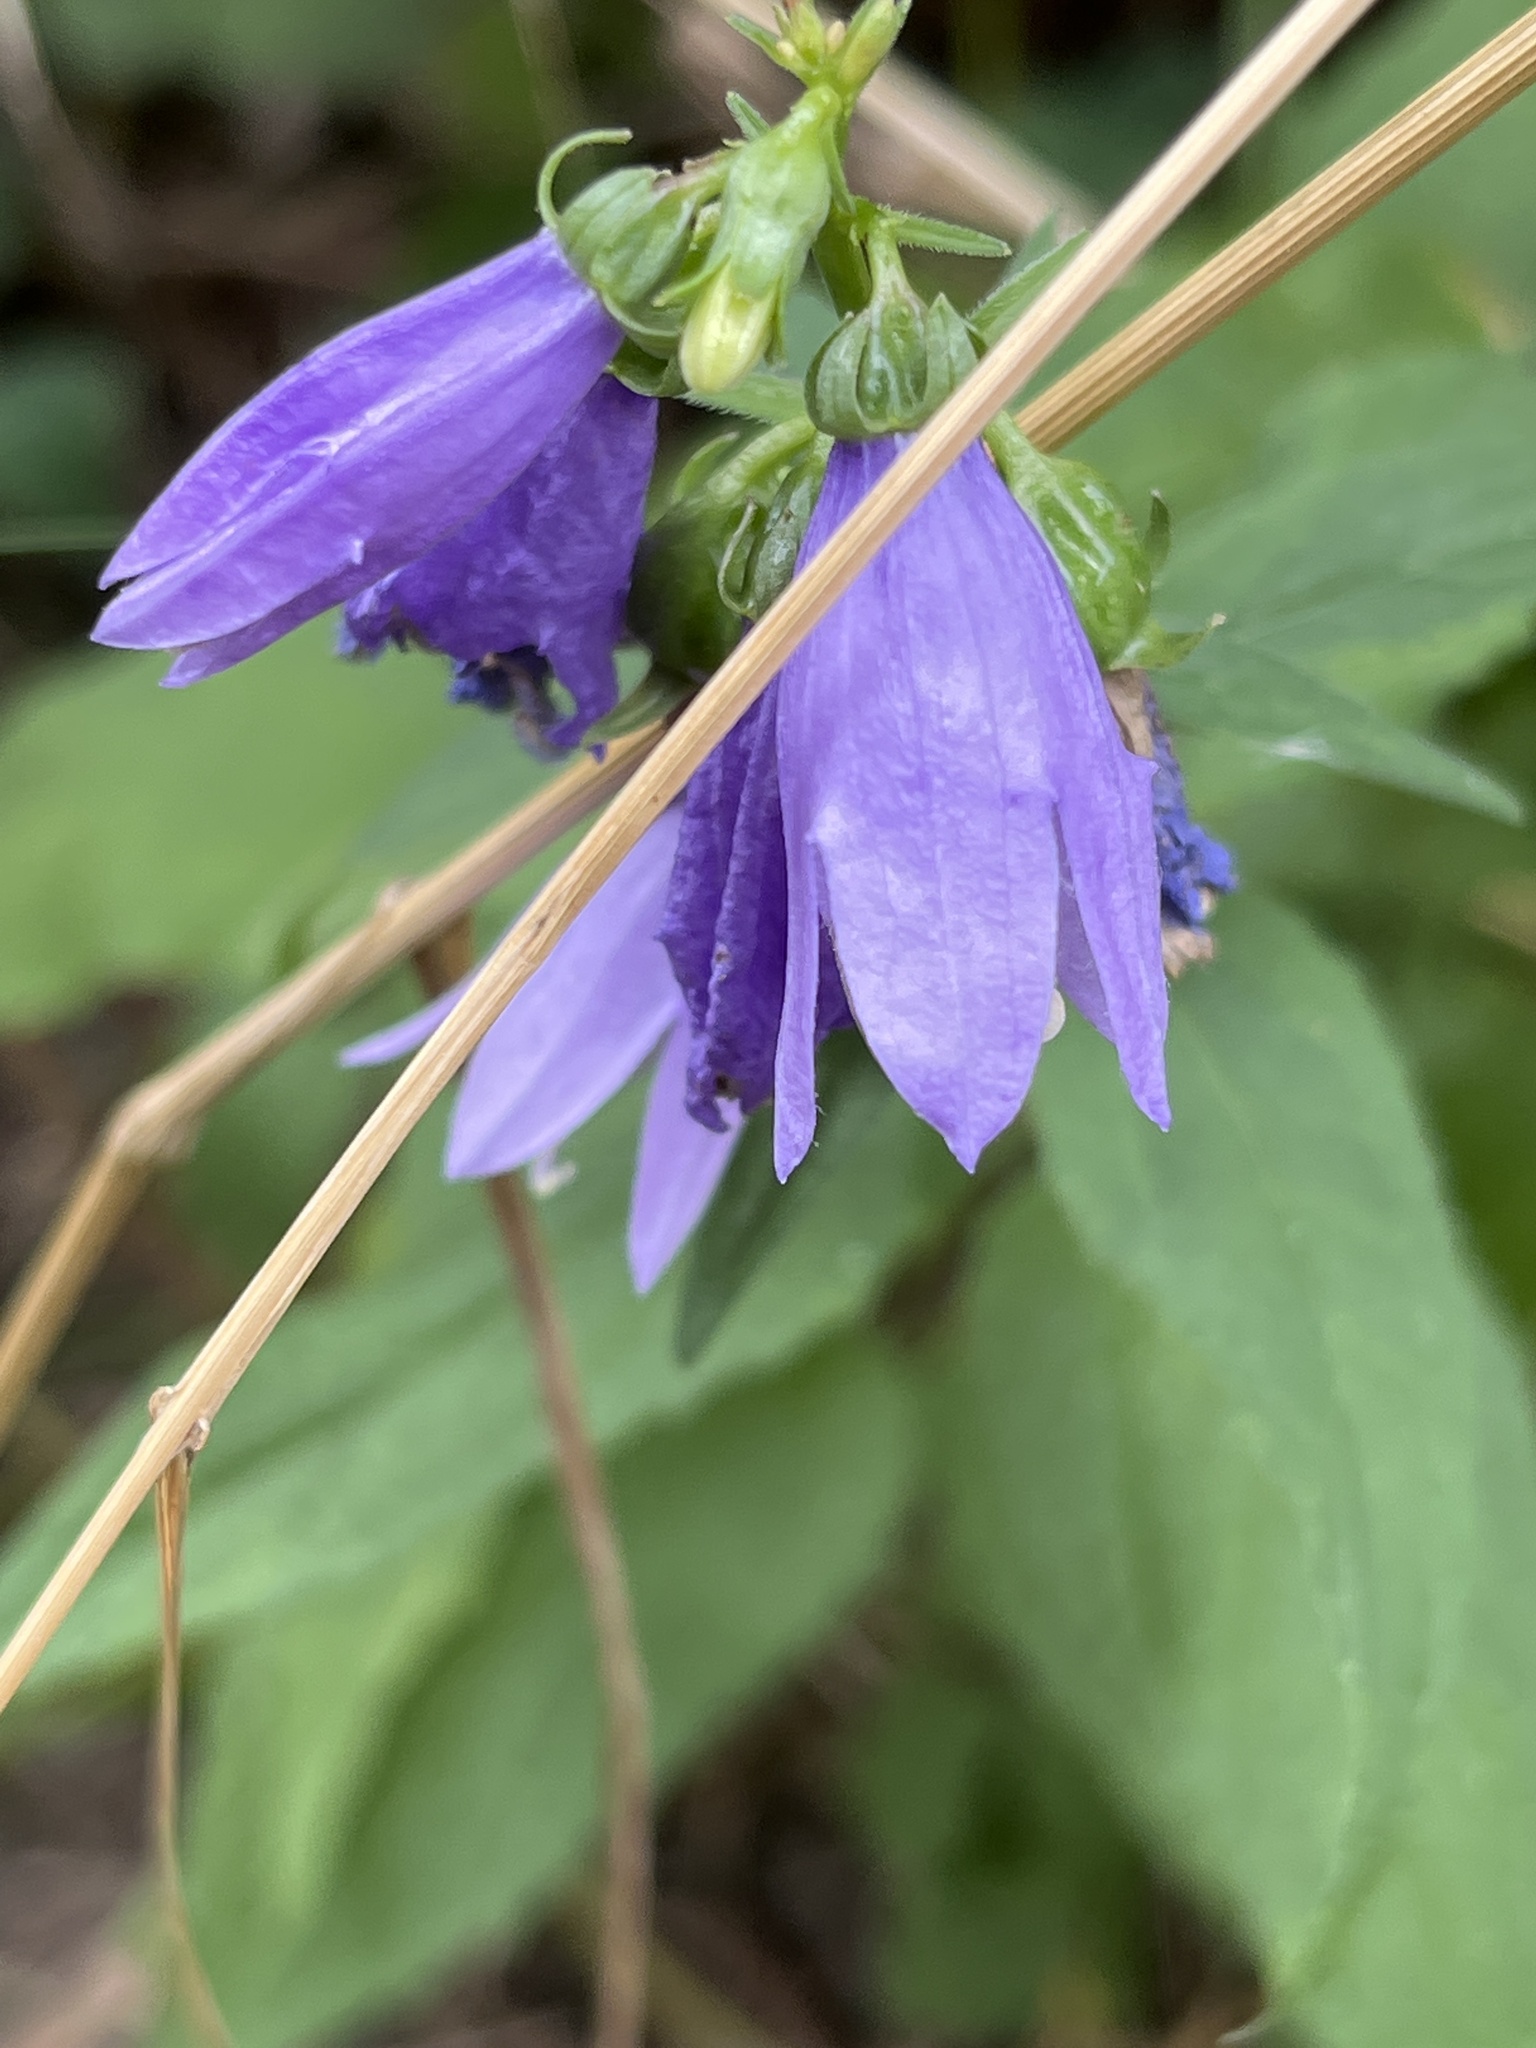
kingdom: Plantae
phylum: Tracheophyta
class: Magnoliopsida
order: Asterales
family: Campanulaceae
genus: Campanula
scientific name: Campanula rapunculoides
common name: Creeping bellflower
